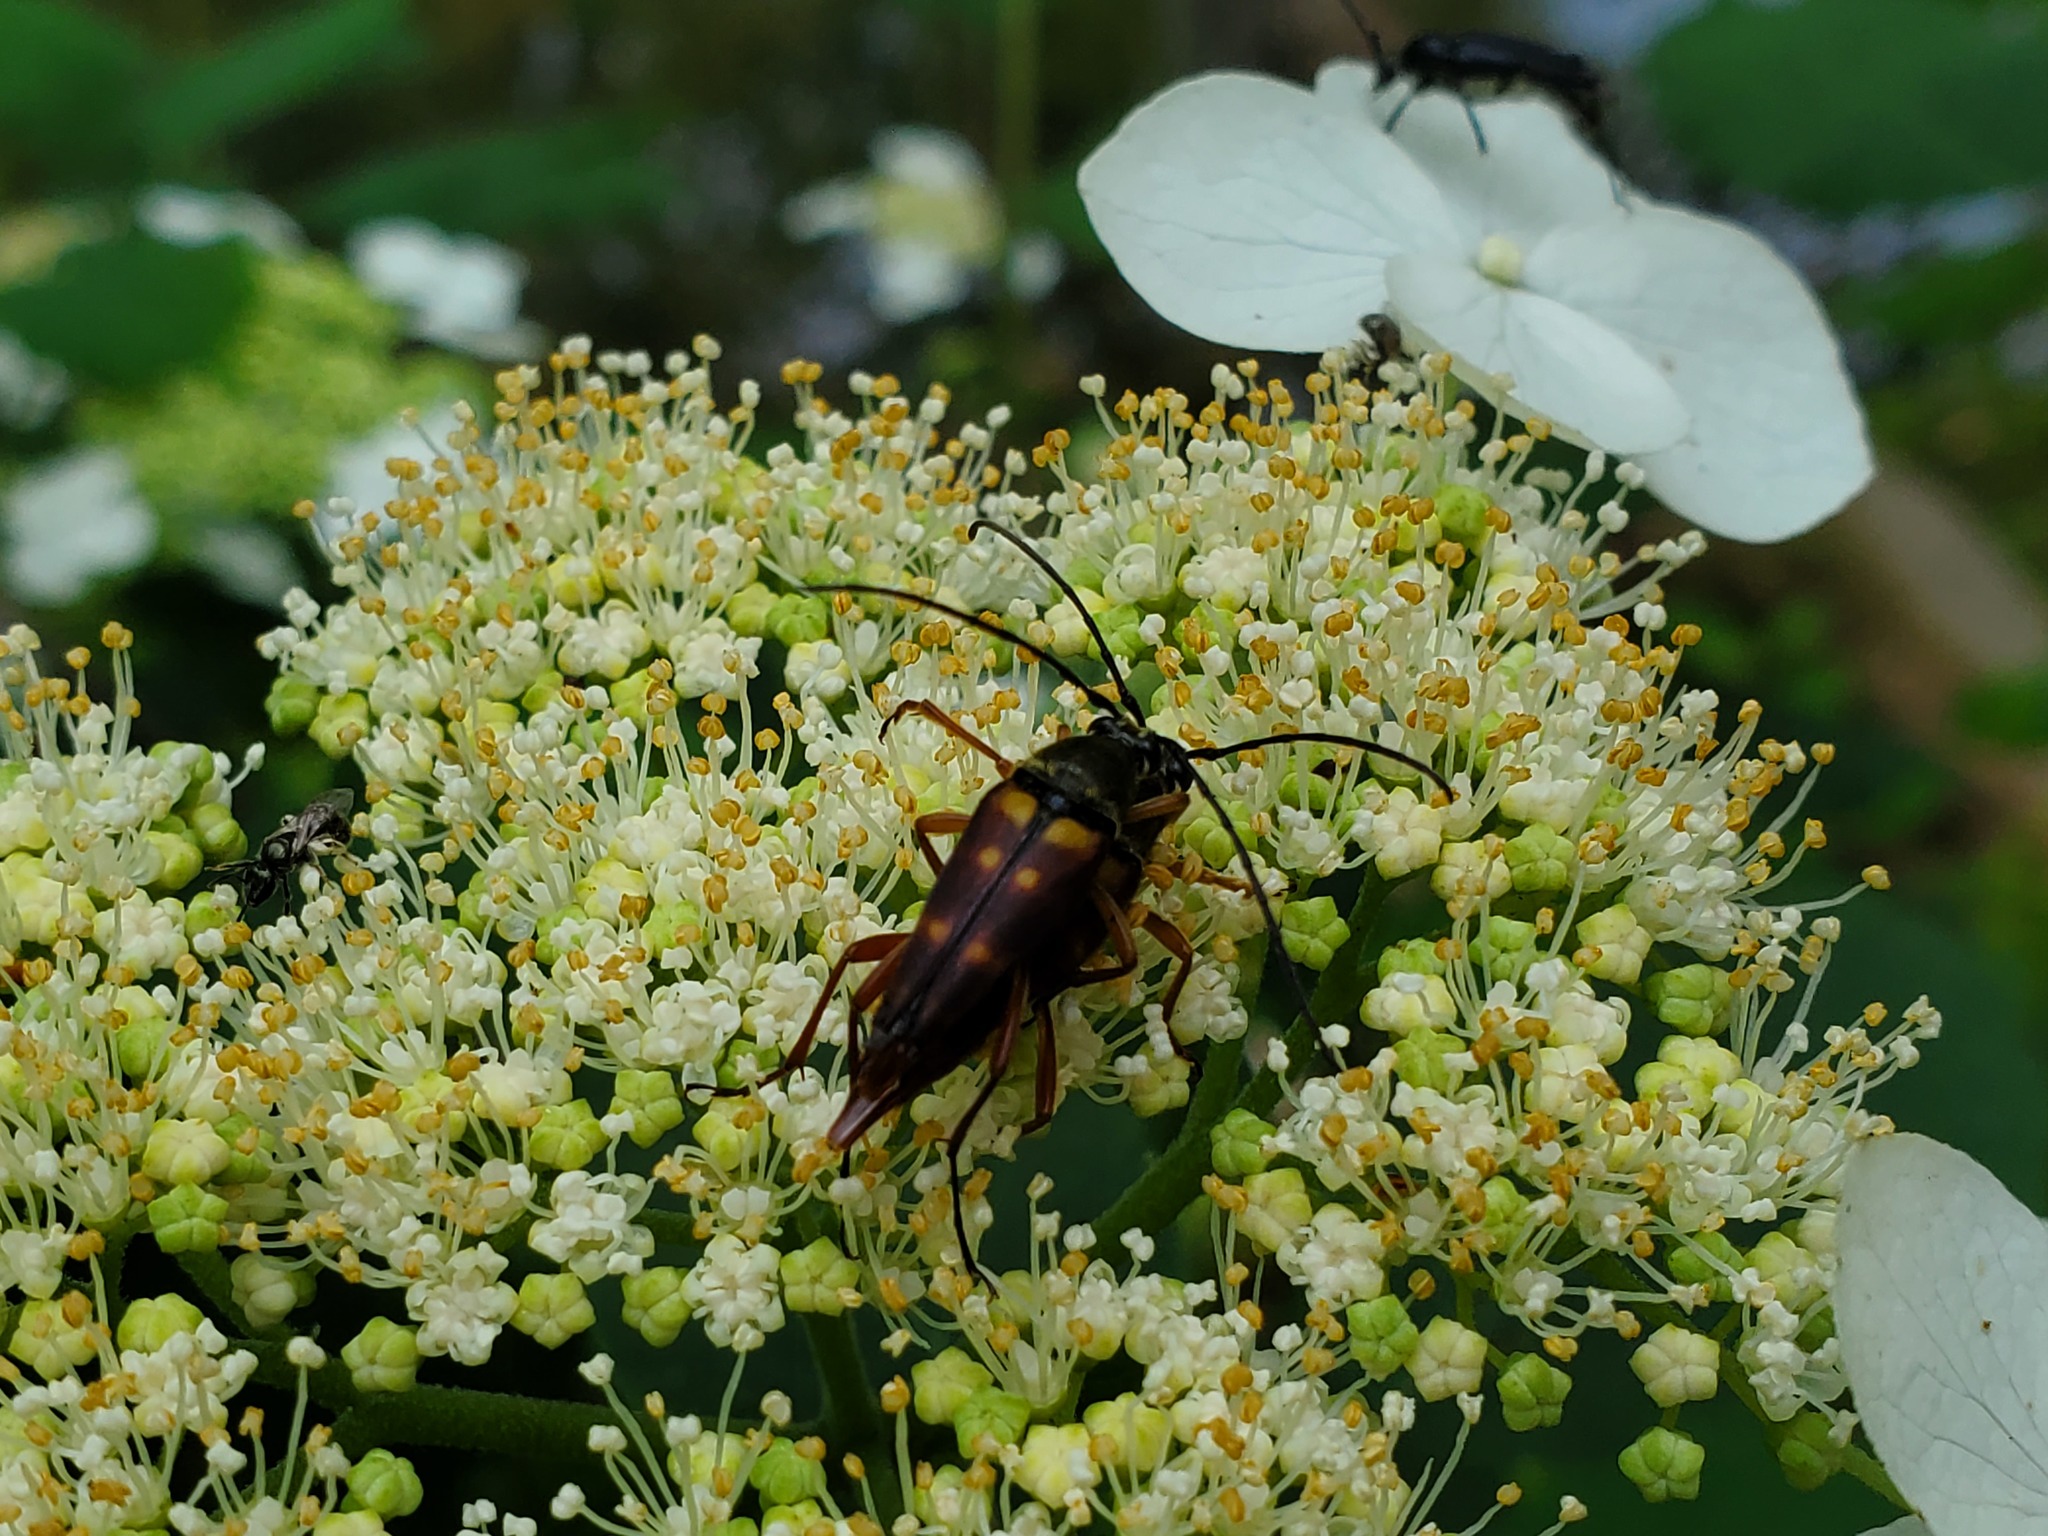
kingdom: Animalia
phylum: Arthropoda
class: Insecta
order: Coleoptera
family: Cerambycidae
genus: Typocerus
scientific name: Typocerus velutinus
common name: Banded longhorn beetle
